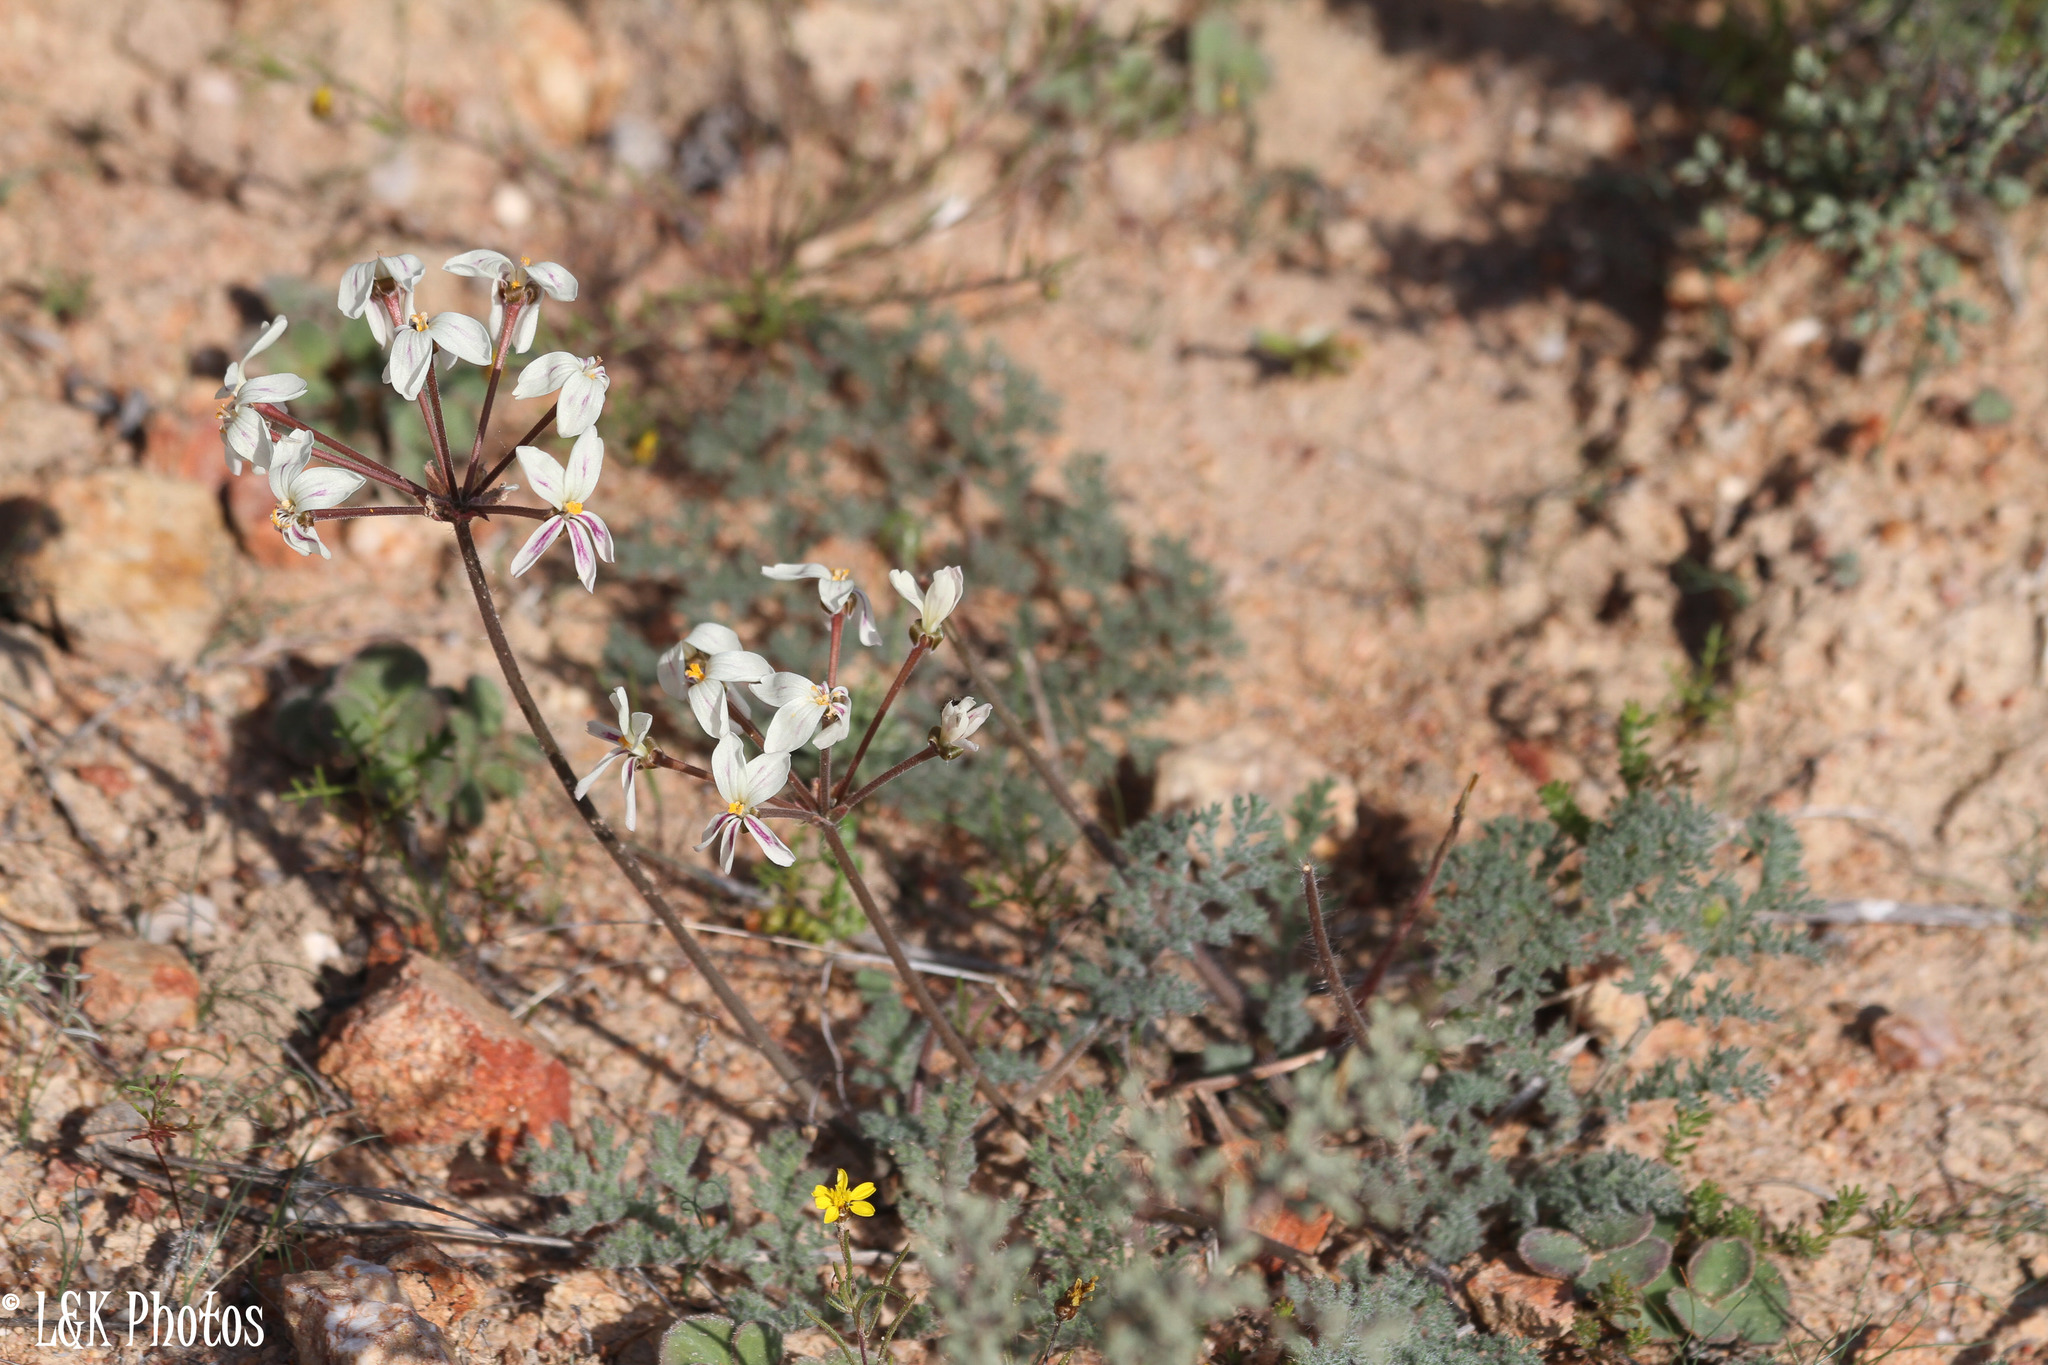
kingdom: Plantae
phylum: Tracheophyta
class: Magnoliopsida
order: Geraniales
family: Geraniaceae
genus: Pelargonium
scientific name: Pelargonium triste
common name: Night-scent pelargonium
